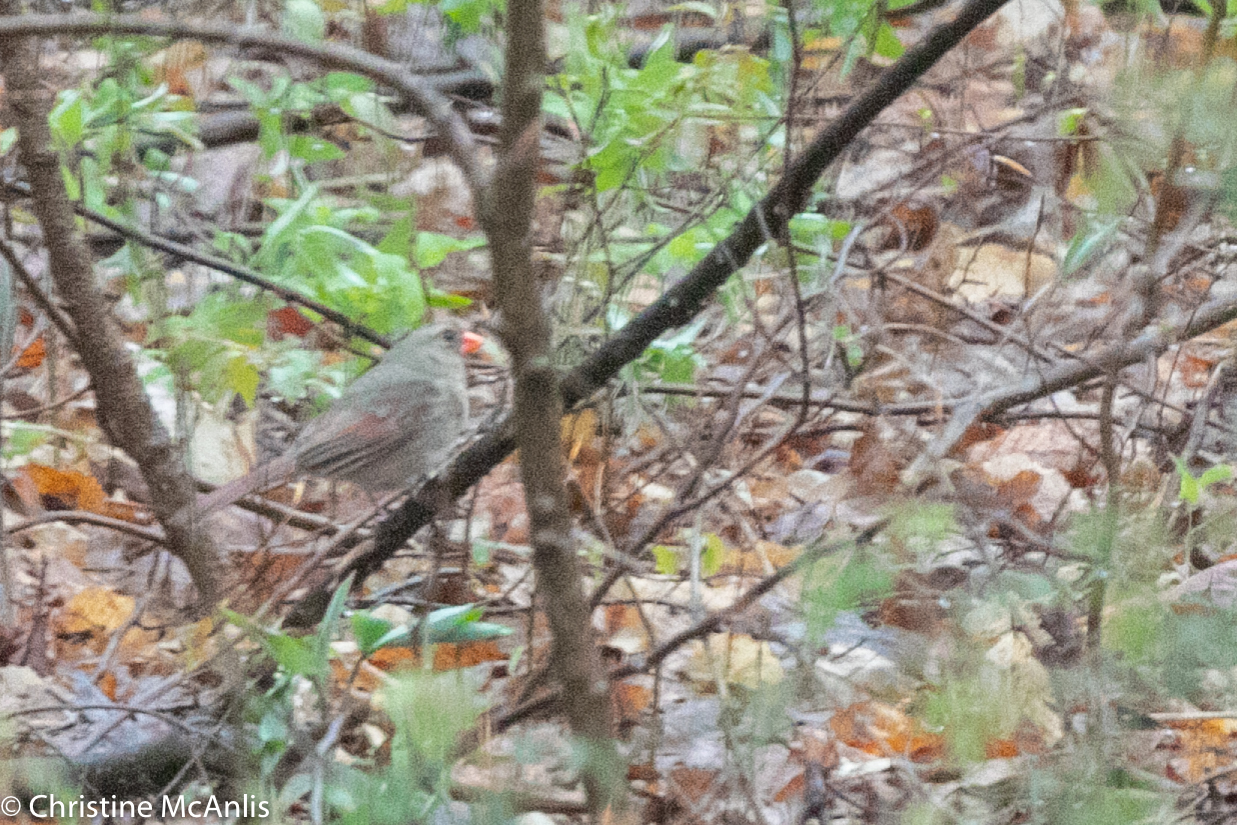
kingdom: Animalia
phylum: Chordata
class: Aves
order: Passeriformes
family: Cardinalidae
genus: Cardinalis
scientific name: Cardinalis cardinalis
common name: Northern cardinal
